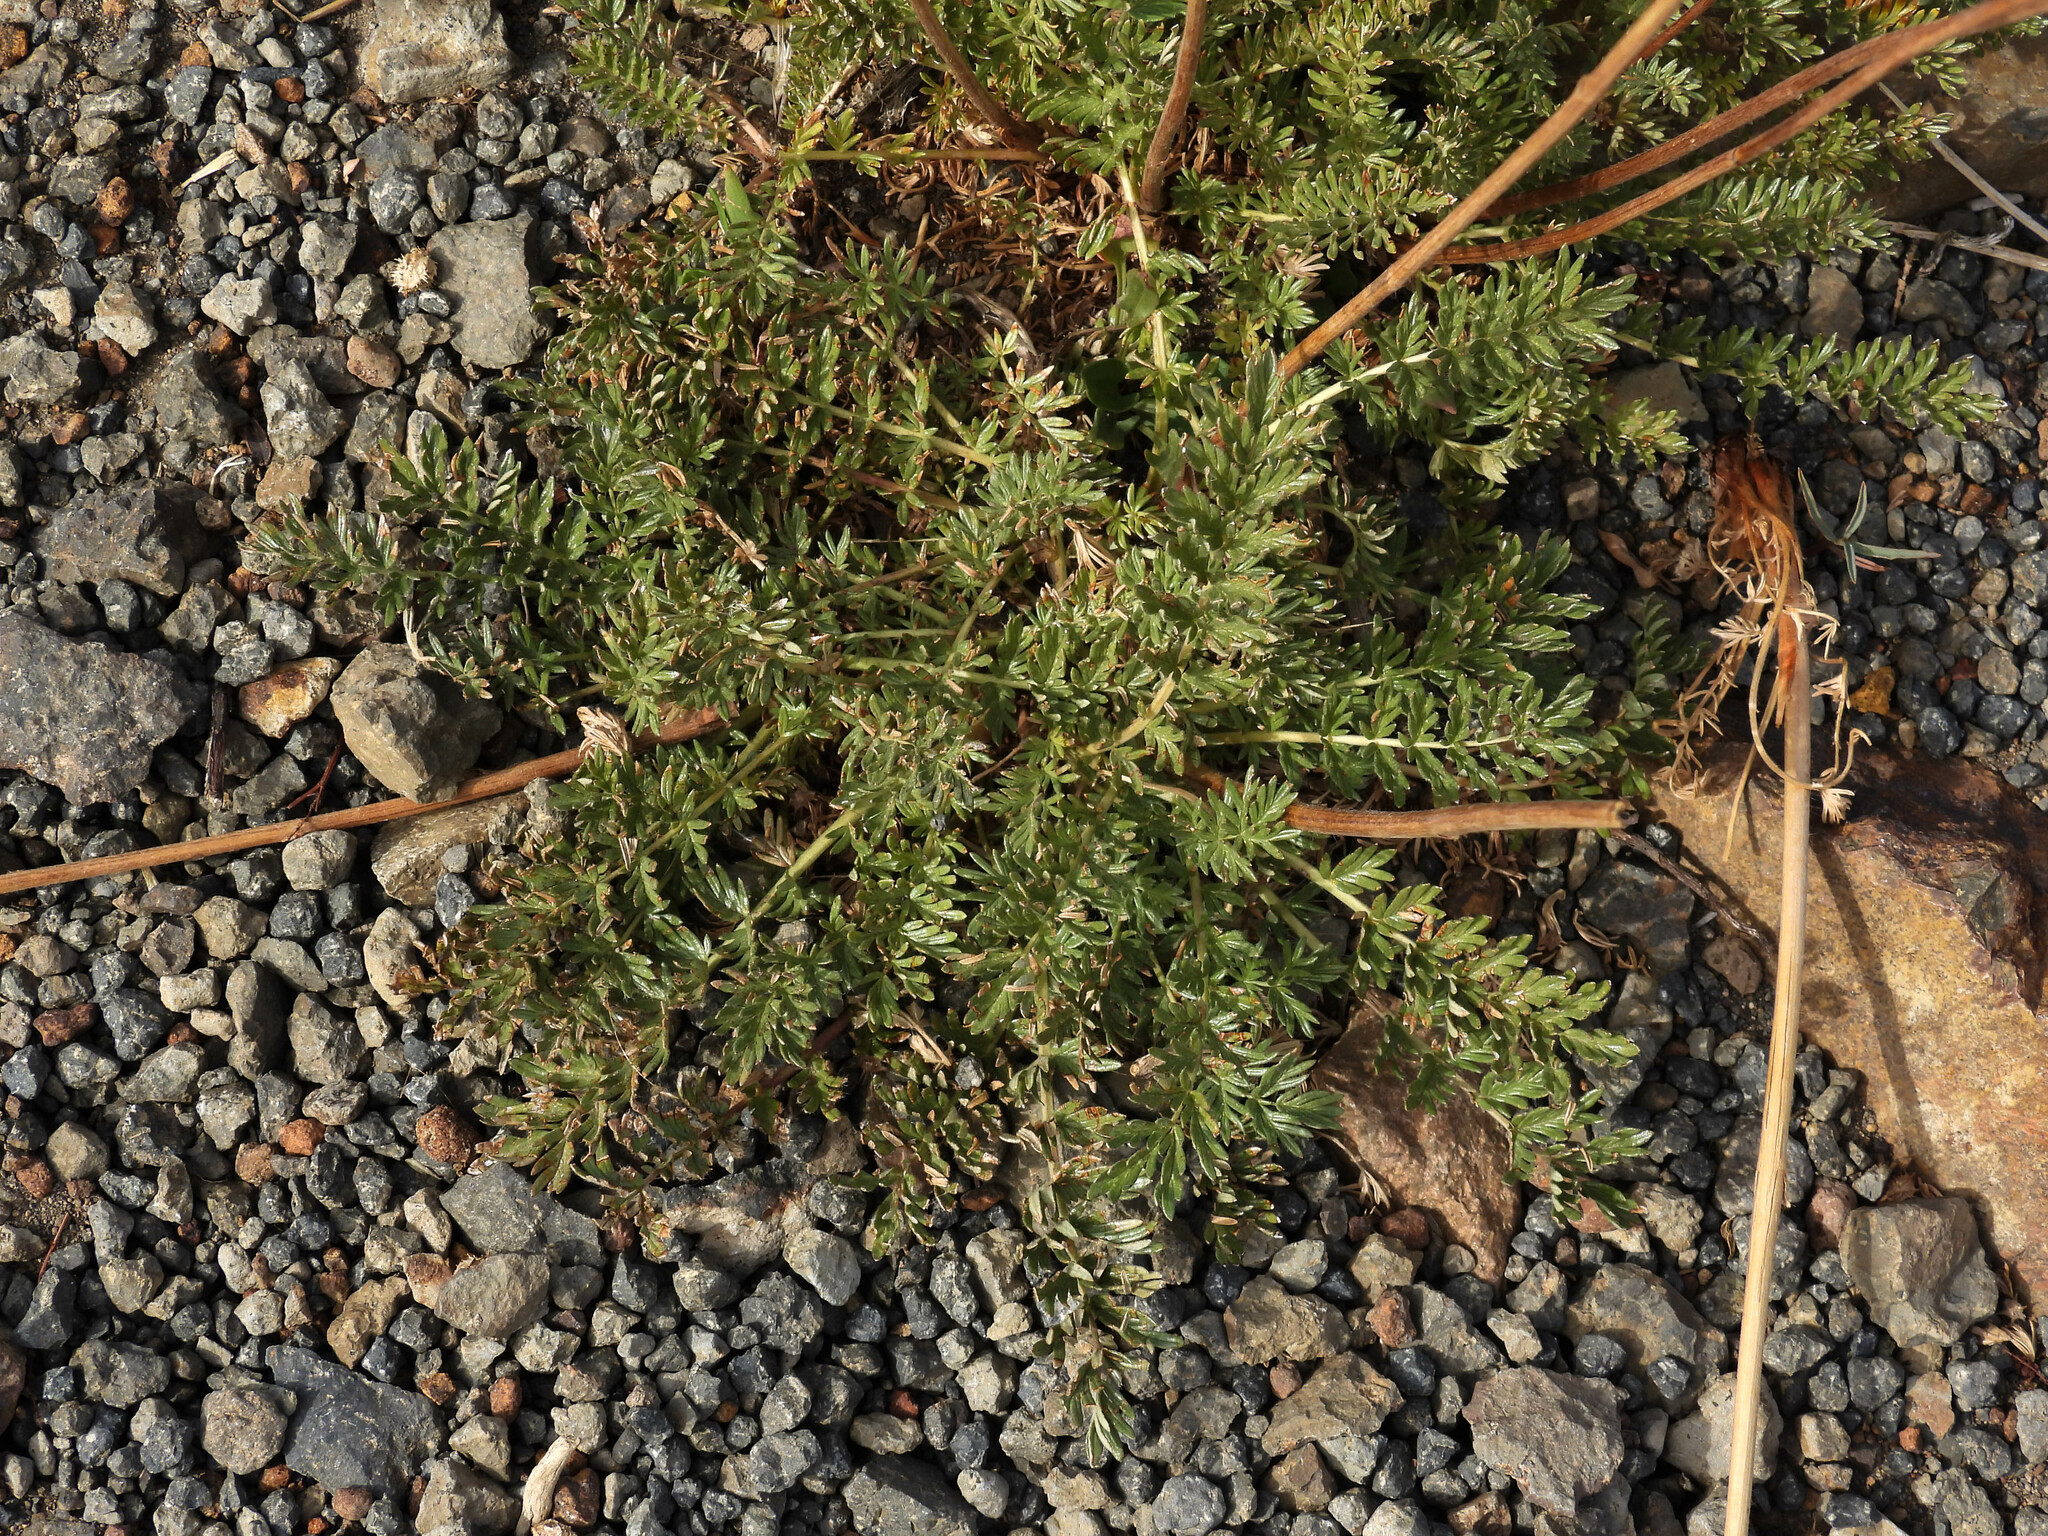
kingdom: Plantae
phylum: Tracheophyta
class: Magnoliopsida
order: Rosales
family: Rosaceae
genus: Acaena
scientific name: Acaena pinnatifida
